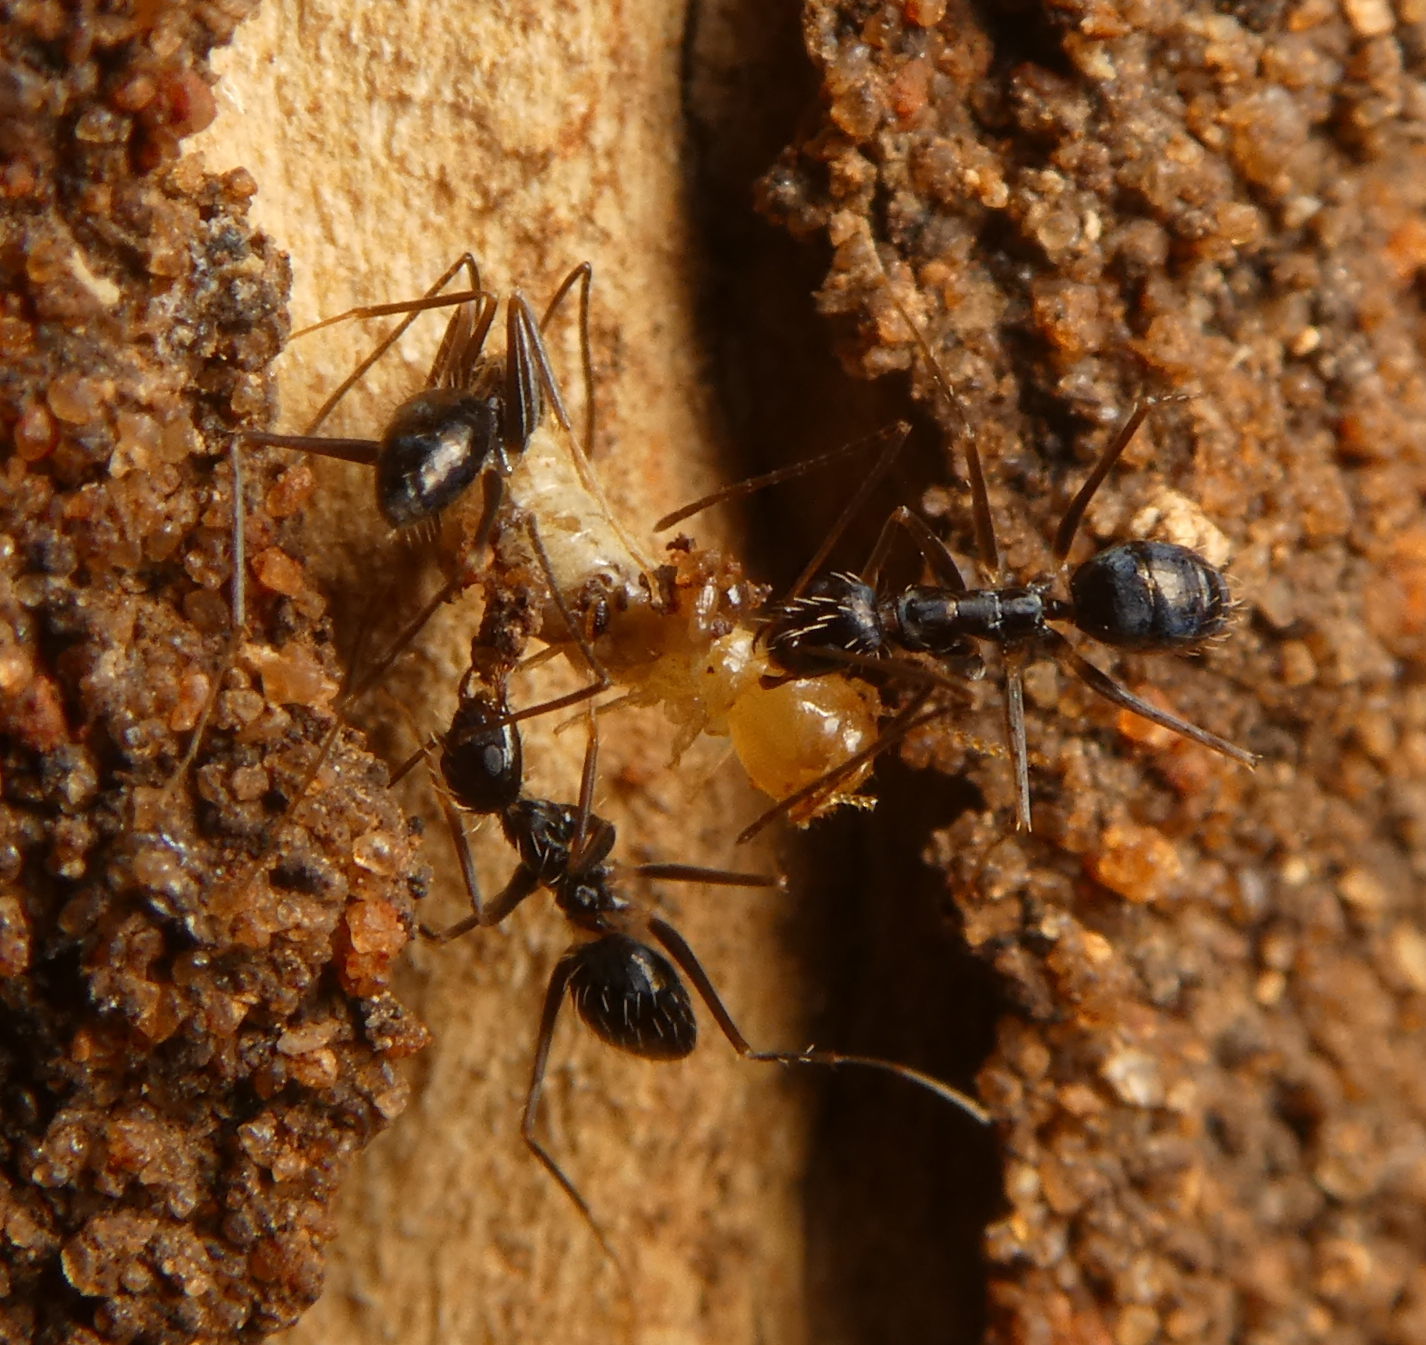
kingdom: Animalia
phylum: Arthropoda
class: Insecta
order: Hymenoptera
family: Formicidae
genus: Paratrechina
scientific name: Paratrechina longicornis
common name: Longhorned crazy ant
